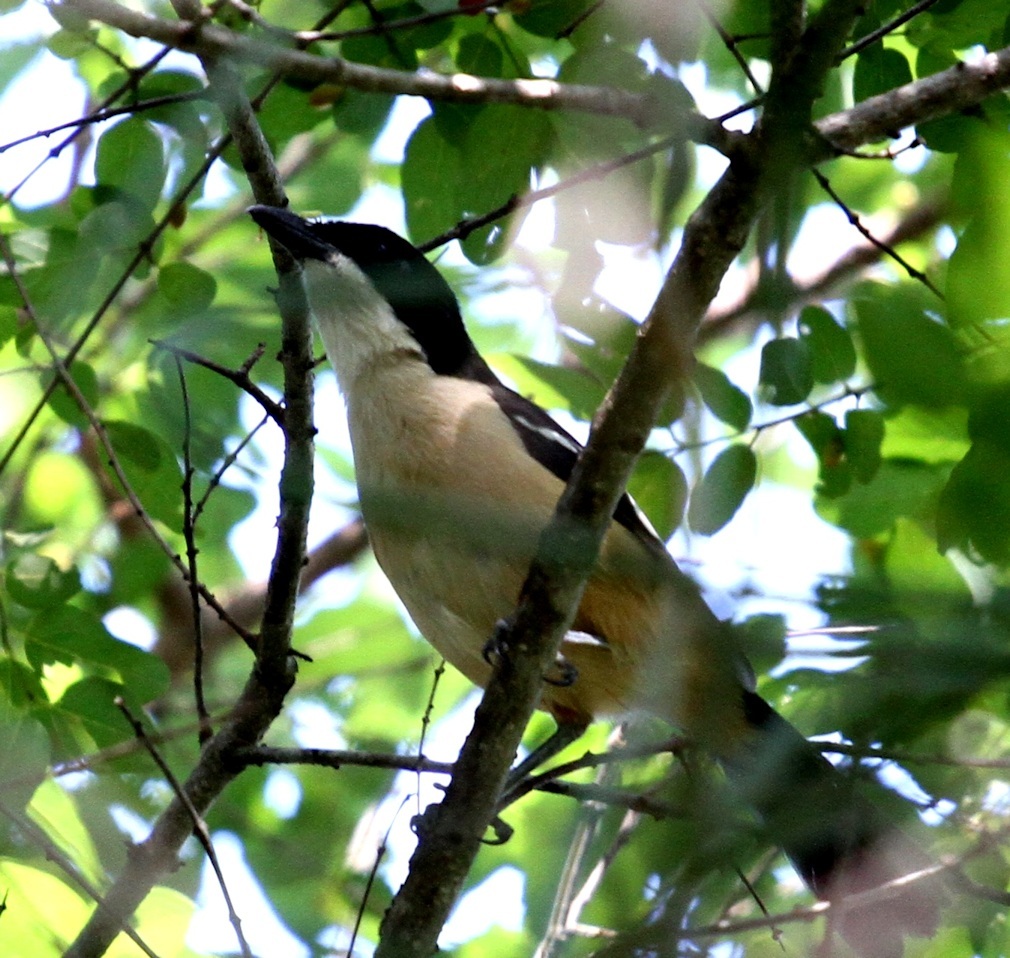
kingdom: Animalia
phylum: Chordata
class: Aves
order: Passeriformes
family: Malaconotidae
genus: Laniarius
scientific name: Laniarius ferrugineus
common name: Southern boubou
